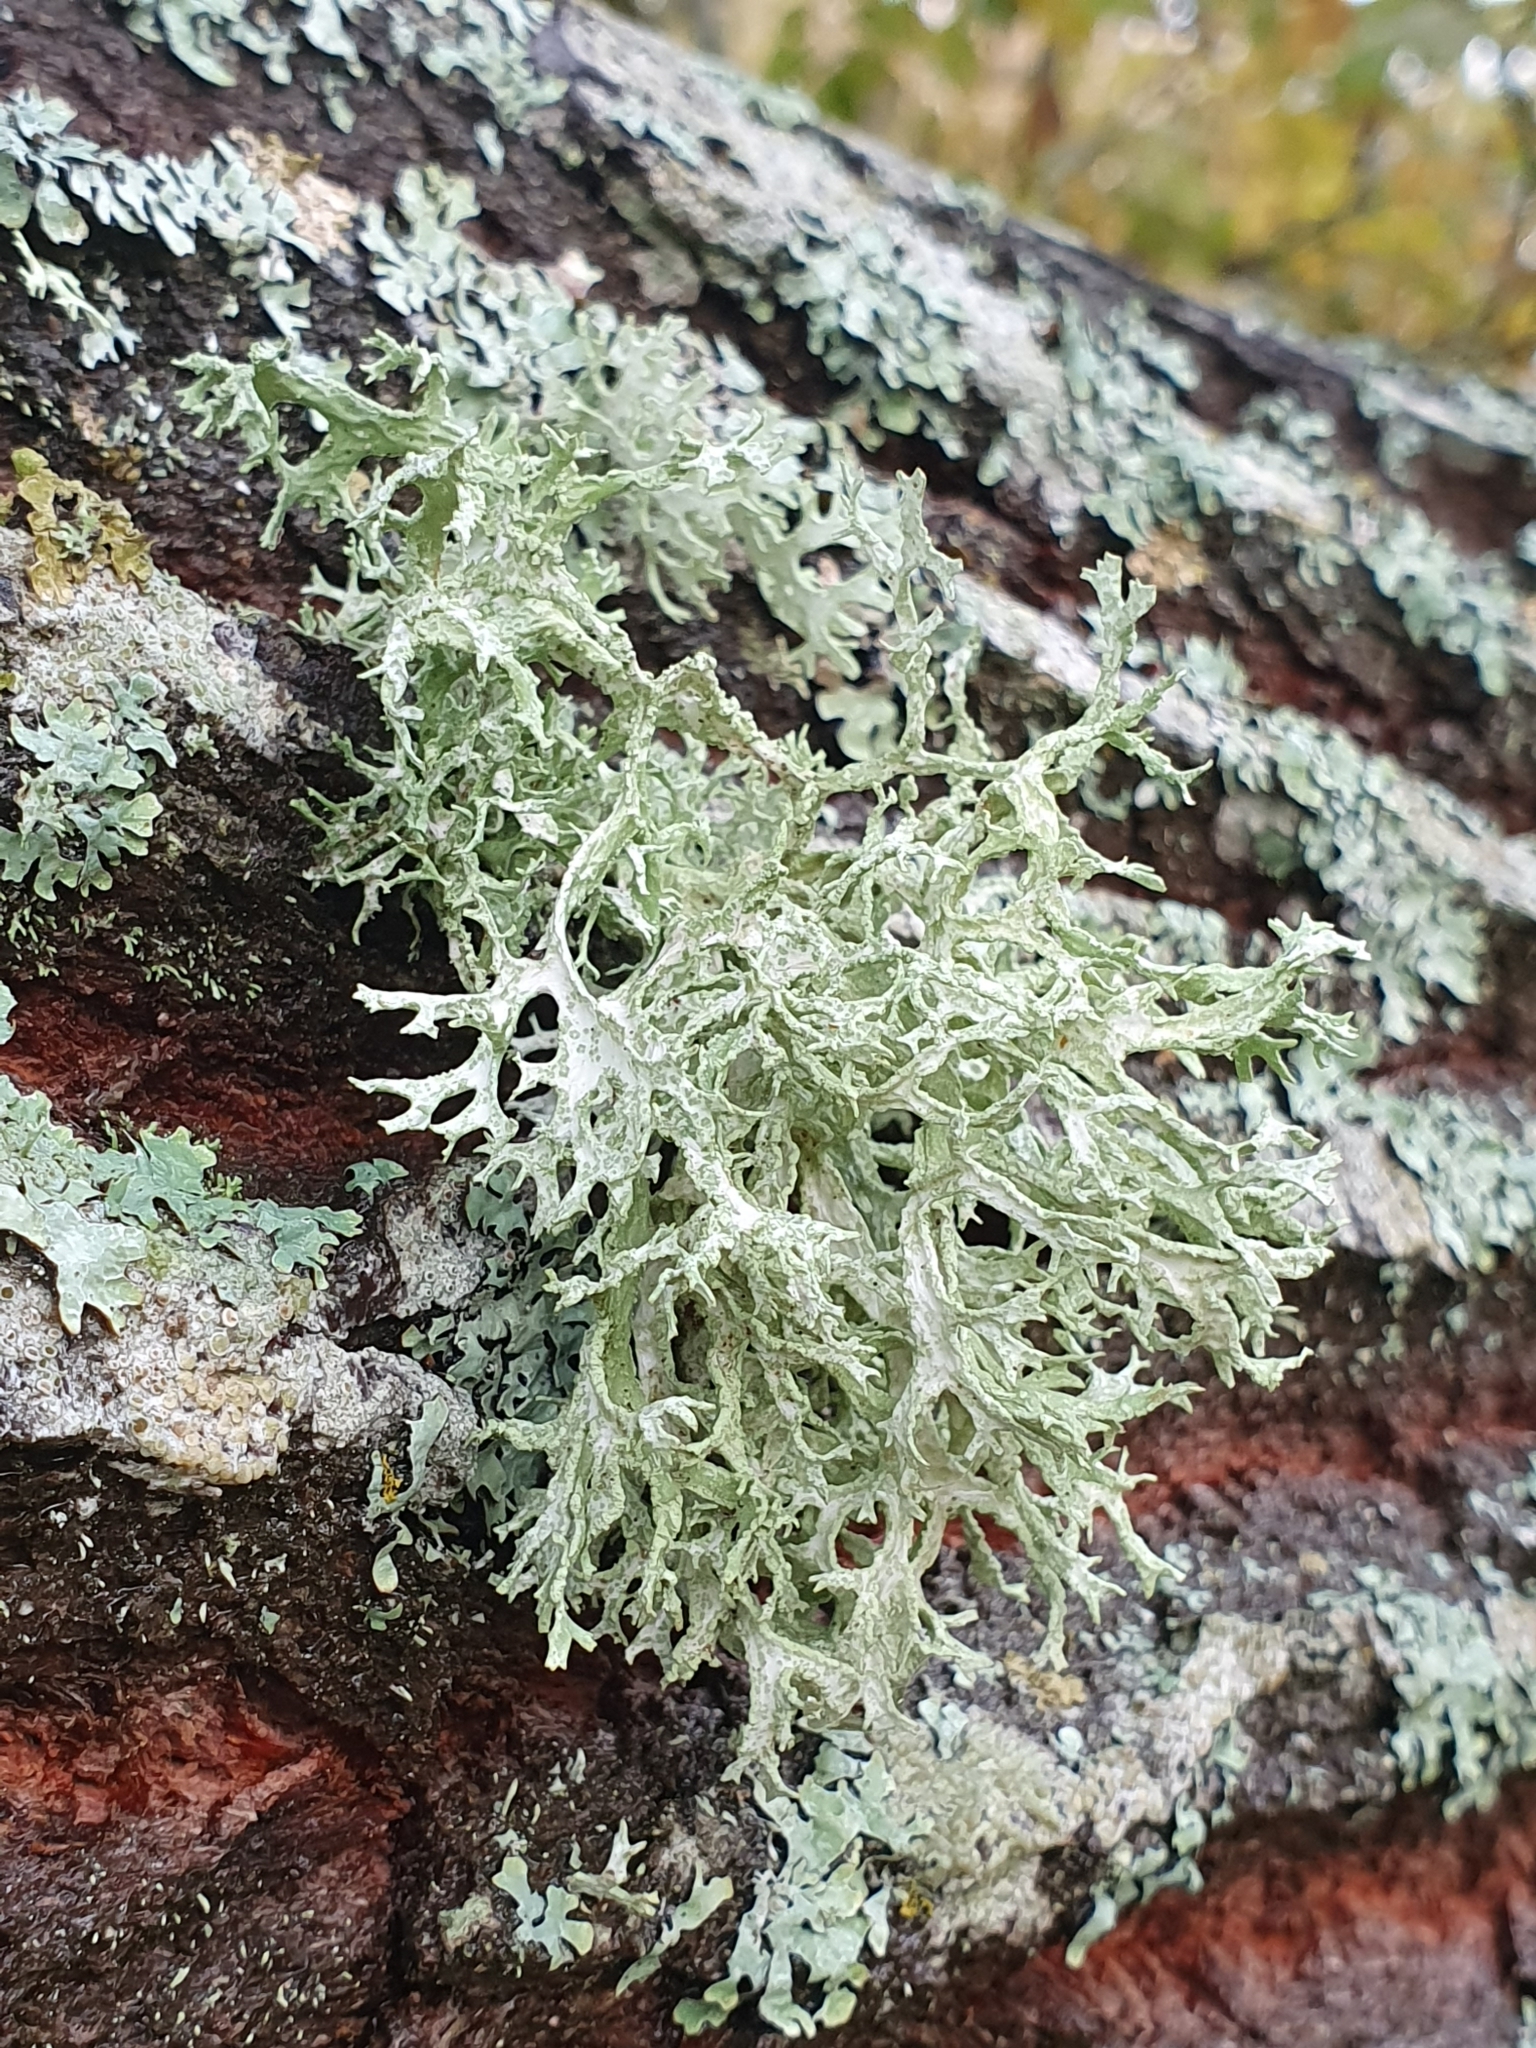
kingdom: Fungi
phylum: Ascomycota
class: Lecanoromycetes
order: Lecanorales
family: Parmeliaceae
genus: Evernia
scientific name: Evernia prunastri
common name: Oak moss
